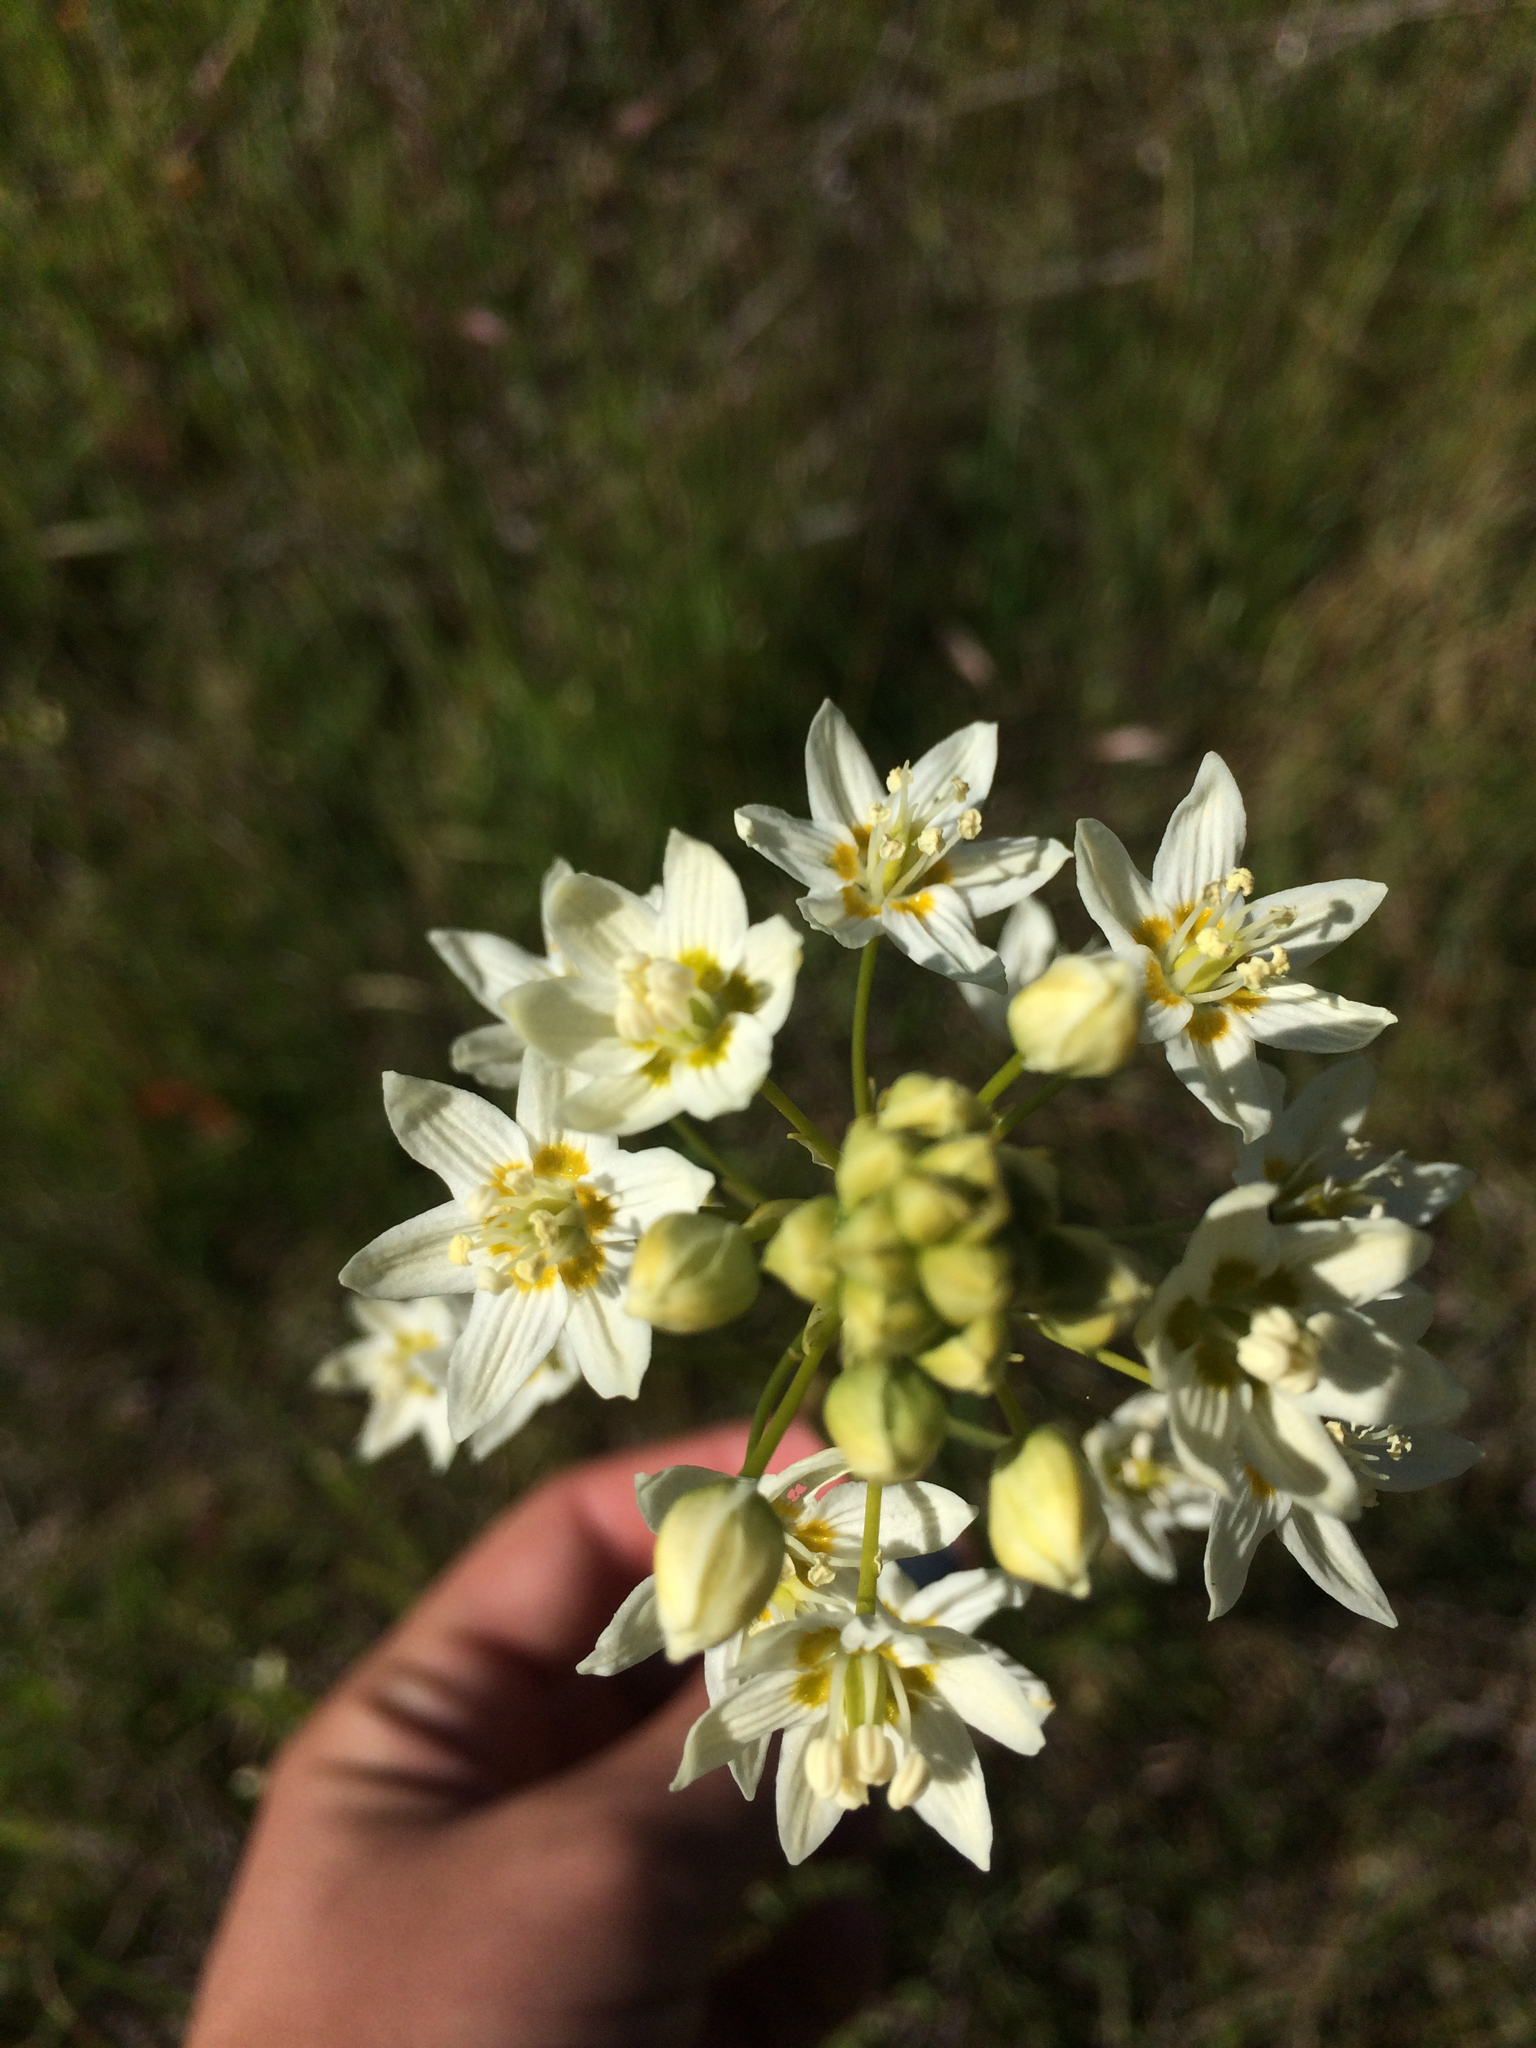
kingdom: Plantae
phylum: Tracheophyta
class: Liliopsida
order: Liliales
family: Melanthiaceae
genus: Toxicoscordion
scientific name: Toxicoscordion fremontii
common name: Fremont's death camas
